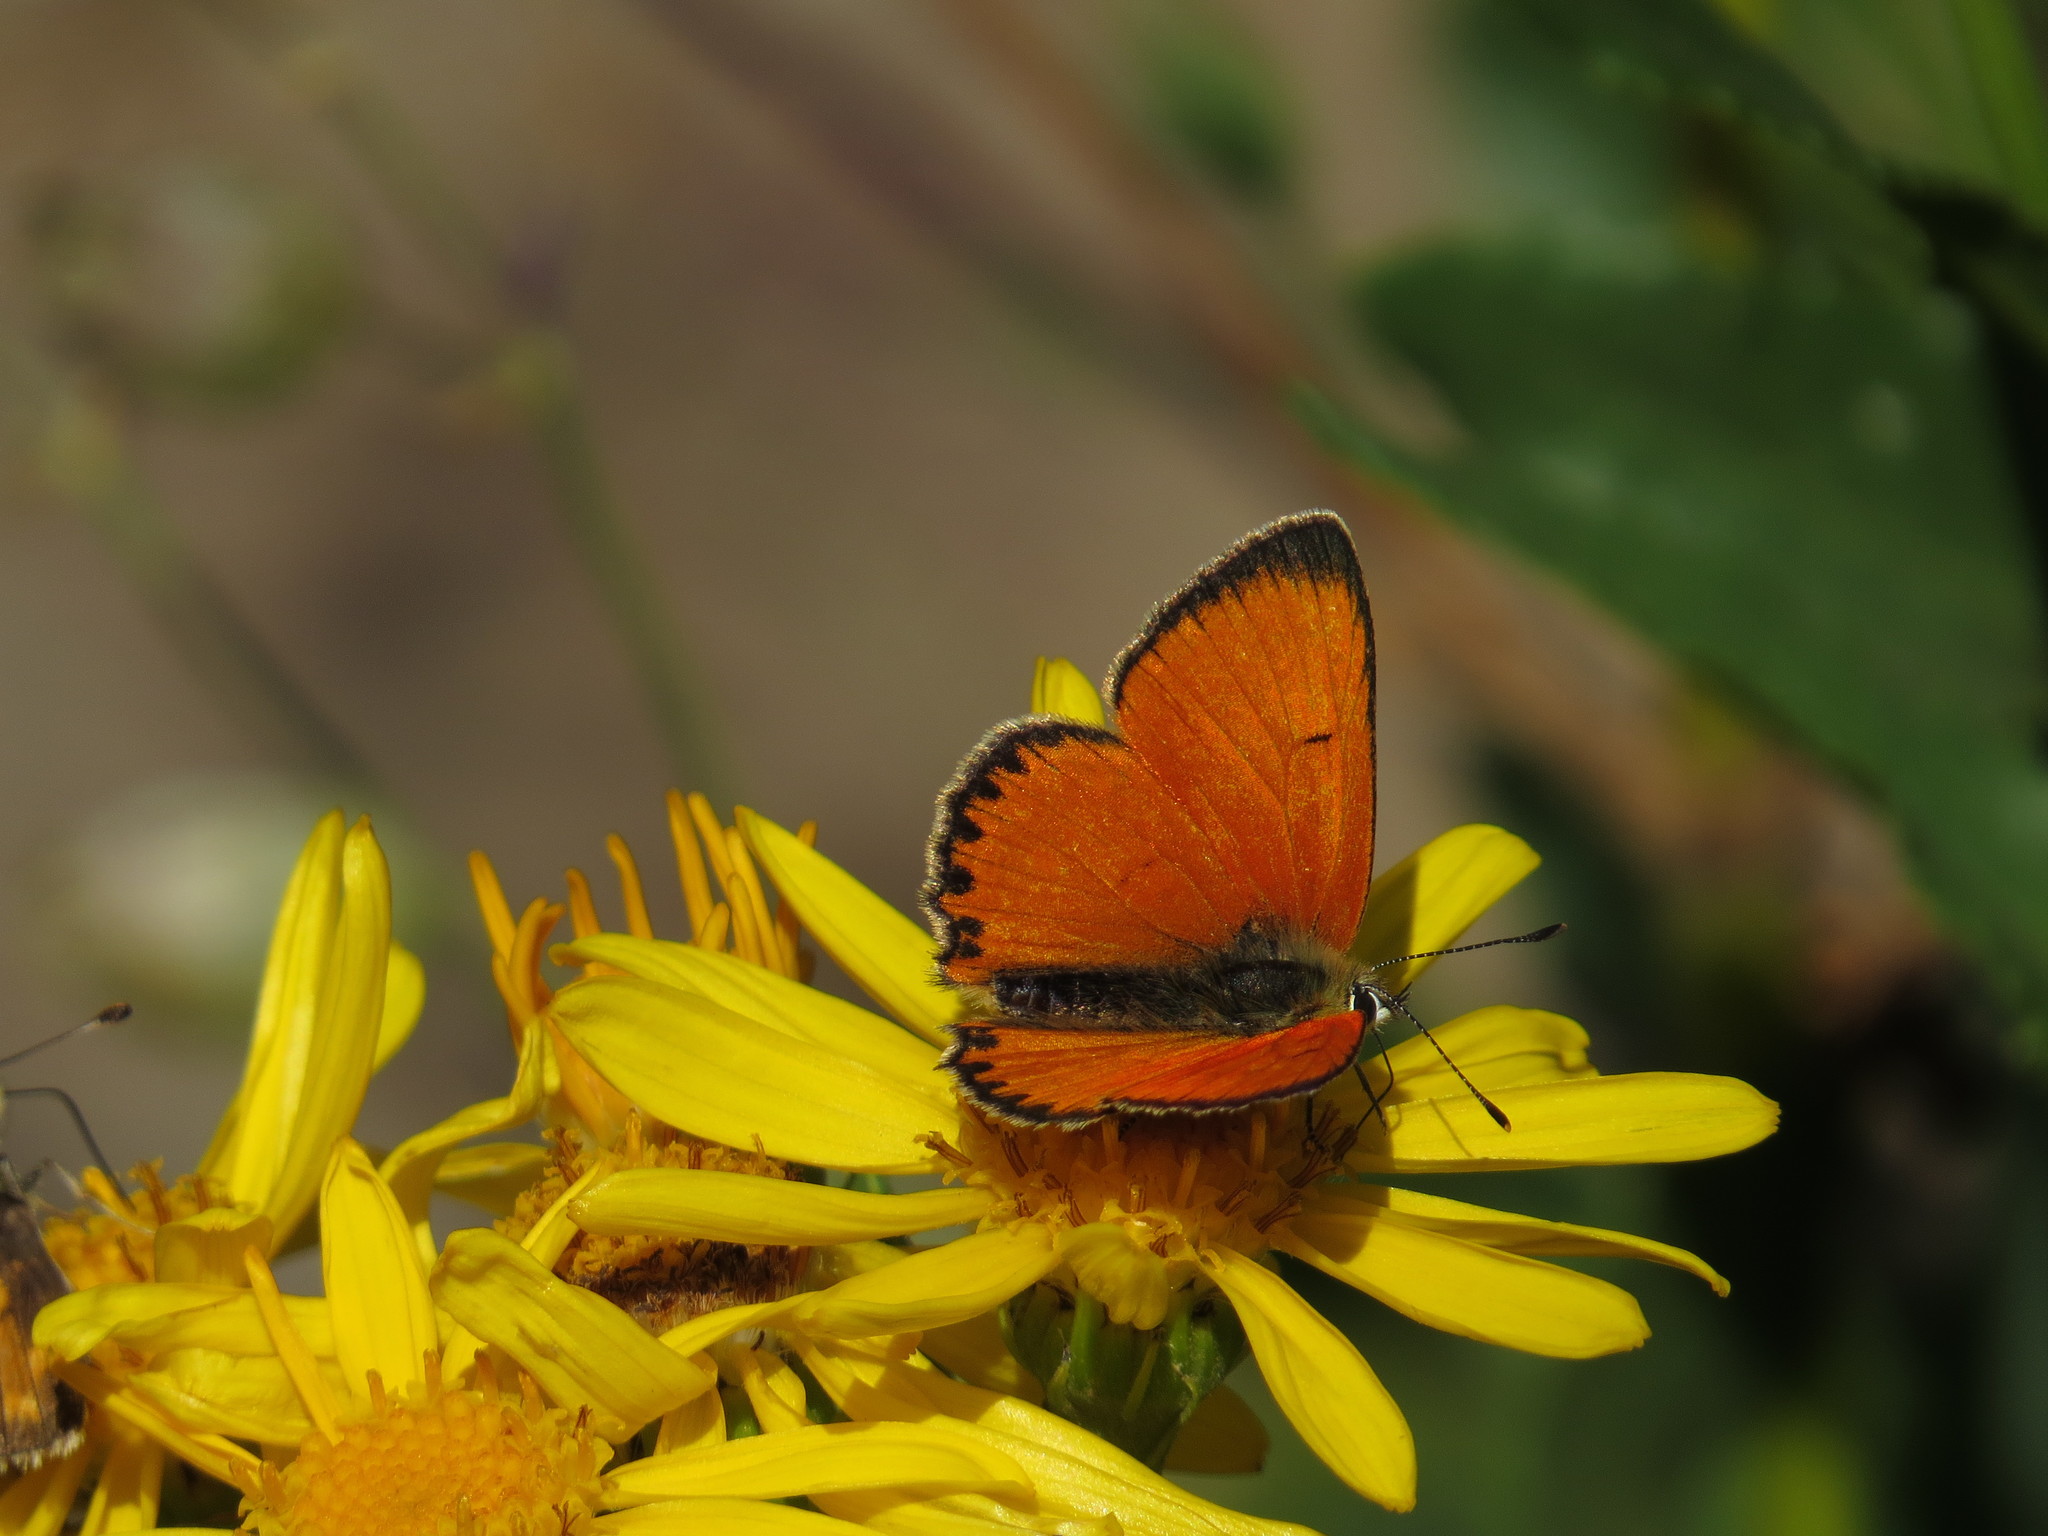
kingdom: Animalia
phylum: Arthropoda
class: Insecta
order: Lepidoptera
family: Lycaenidae
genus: Lycaena
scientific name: Lycaena virgaureae
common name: Scarce copper
